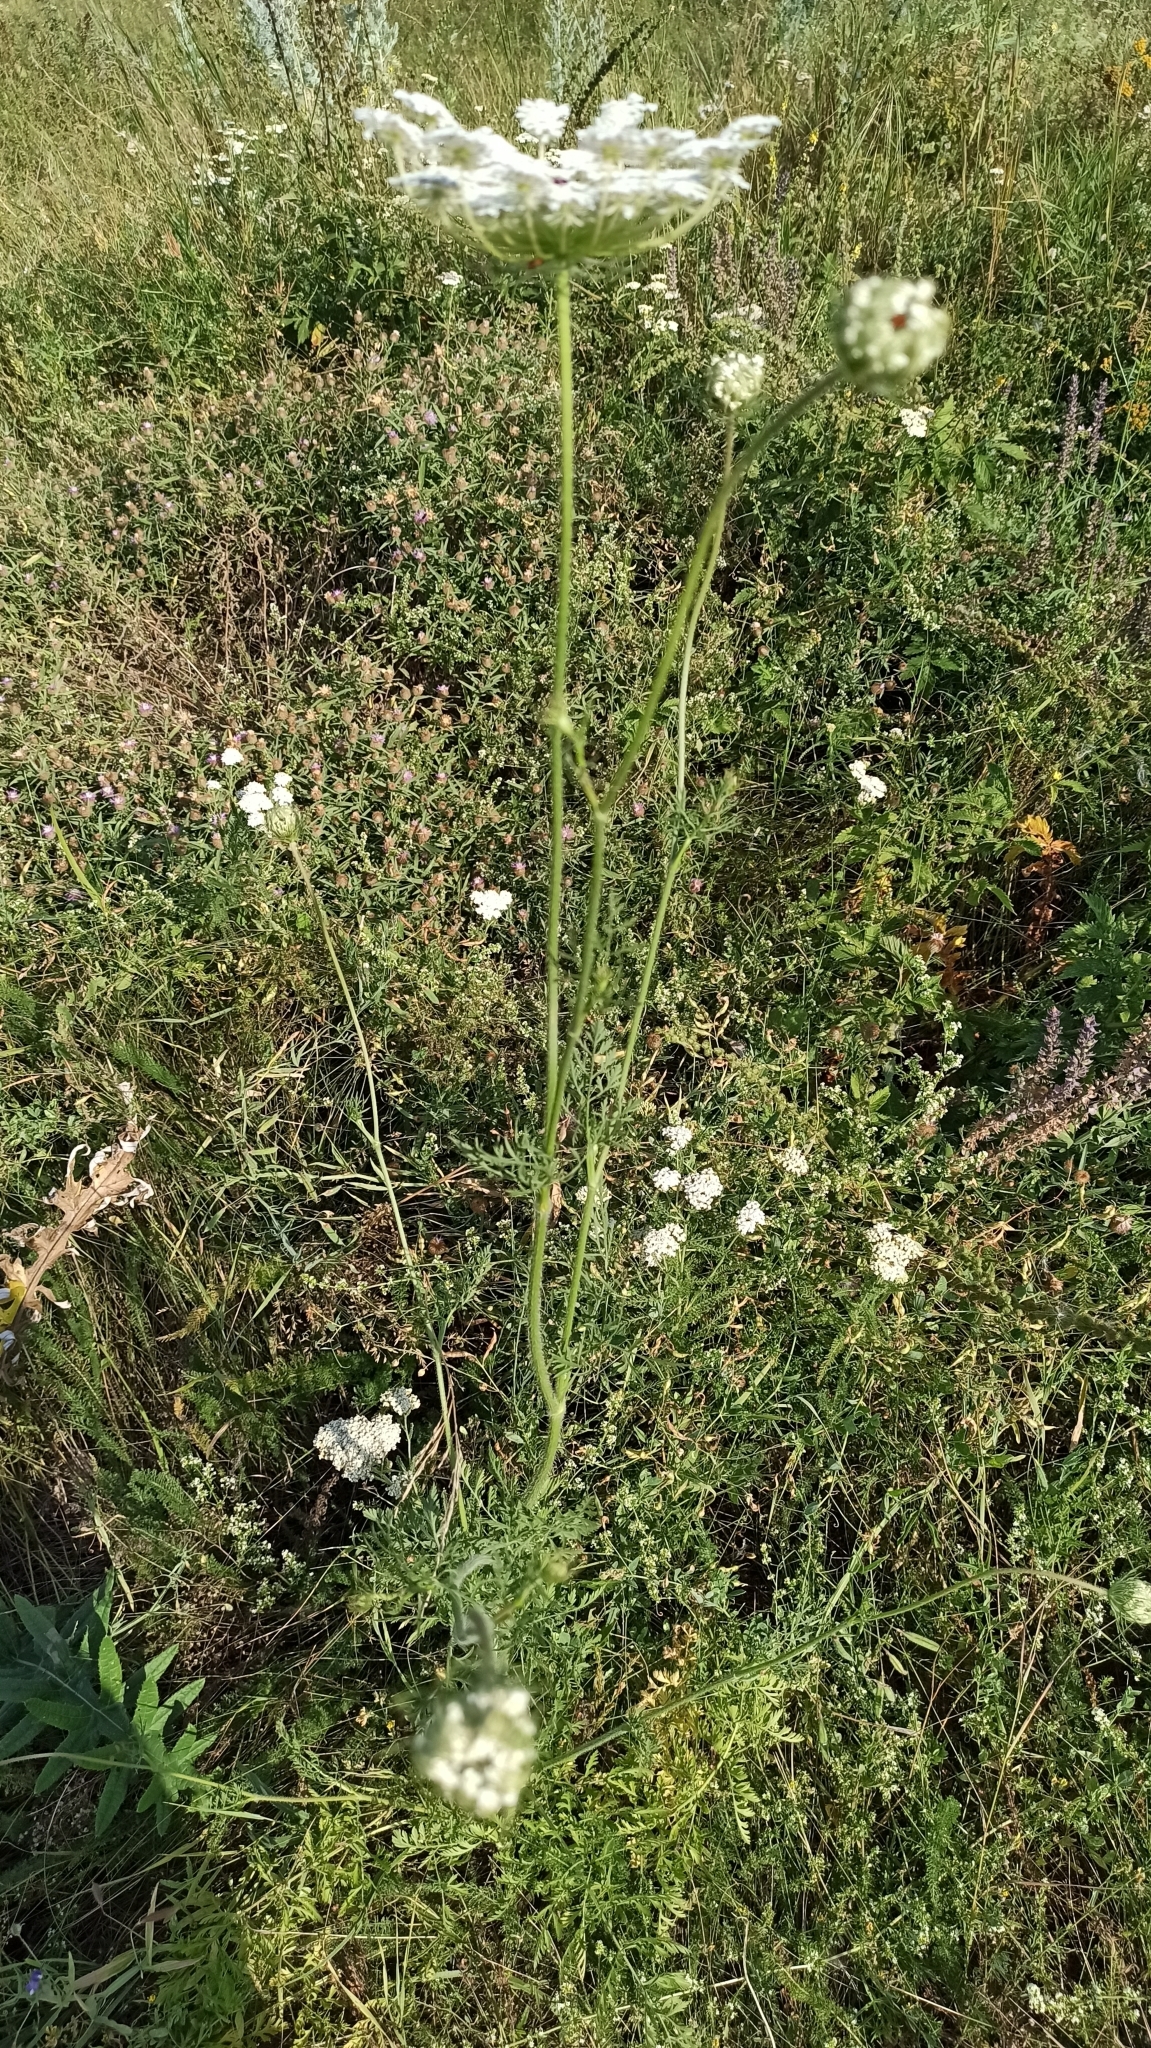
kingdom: Plantae
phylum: Tracheophyta
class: Magnoliopsida
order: Apiales
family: Apiaceae
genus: Daucus
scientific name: Daucus carota
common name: Wild carrot
